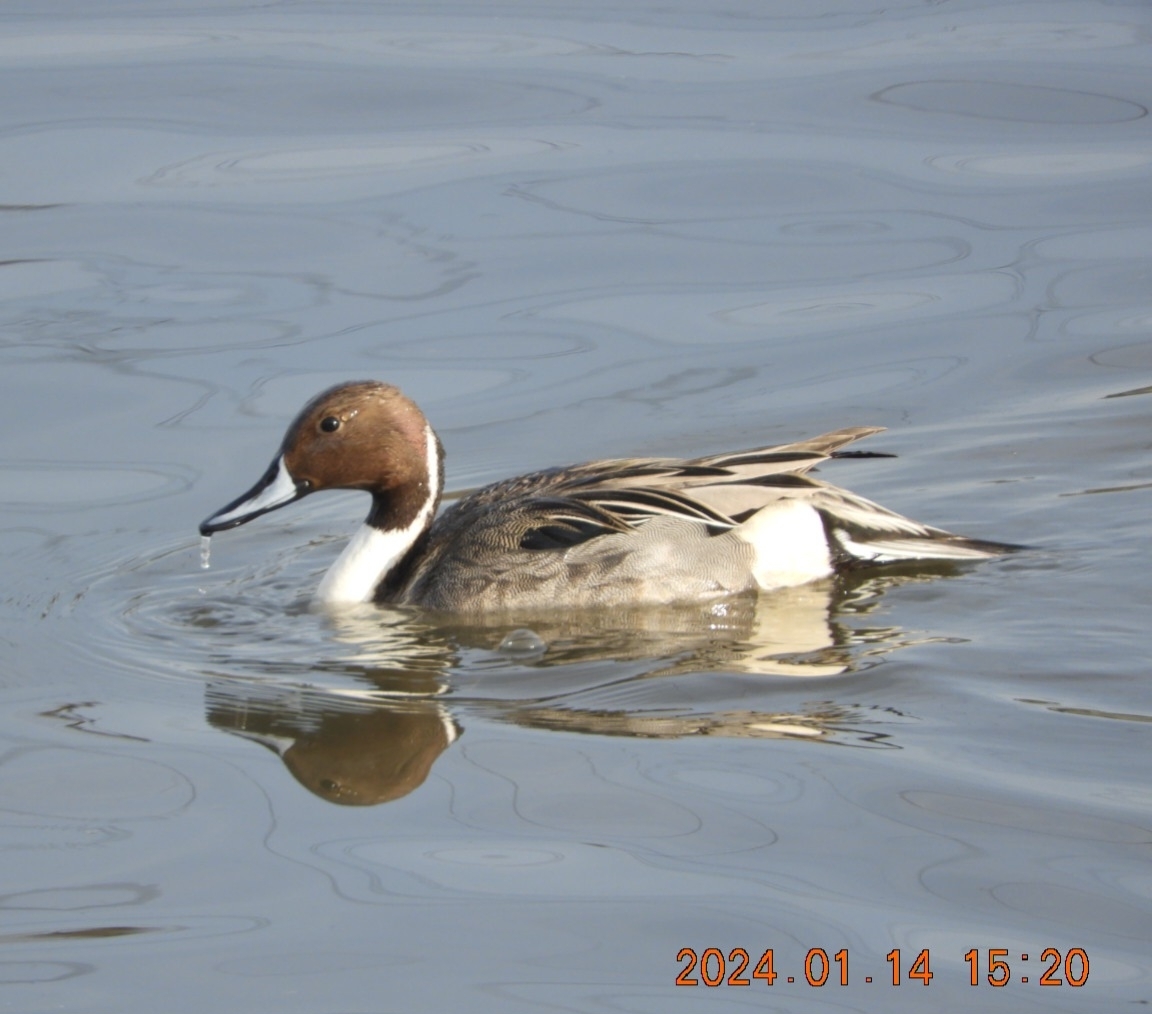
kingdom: Animalia
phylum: Chordata
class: Aves
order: Anseriformes
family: Anatidae
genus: Anas
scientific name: Anas acuta
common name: Northern pintail
